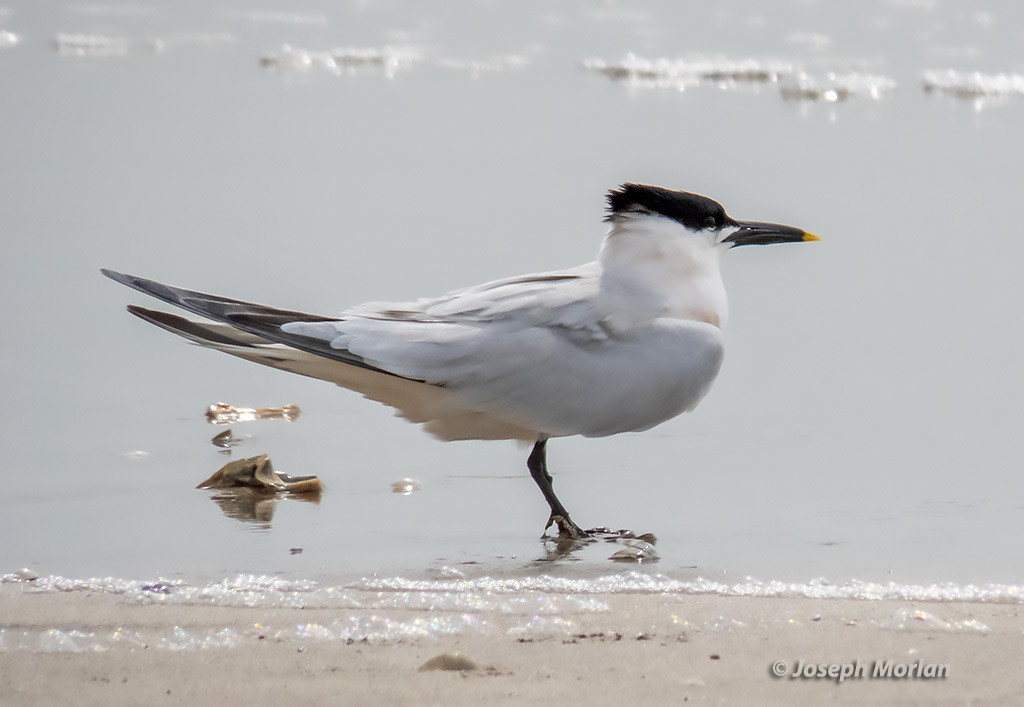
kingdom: Animalia
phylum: Chordata
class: Aves
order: Charadriiformes
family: Laridae
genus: Thalasseus
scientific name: Thalasseus sandvicensis
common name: Sandwich tern
